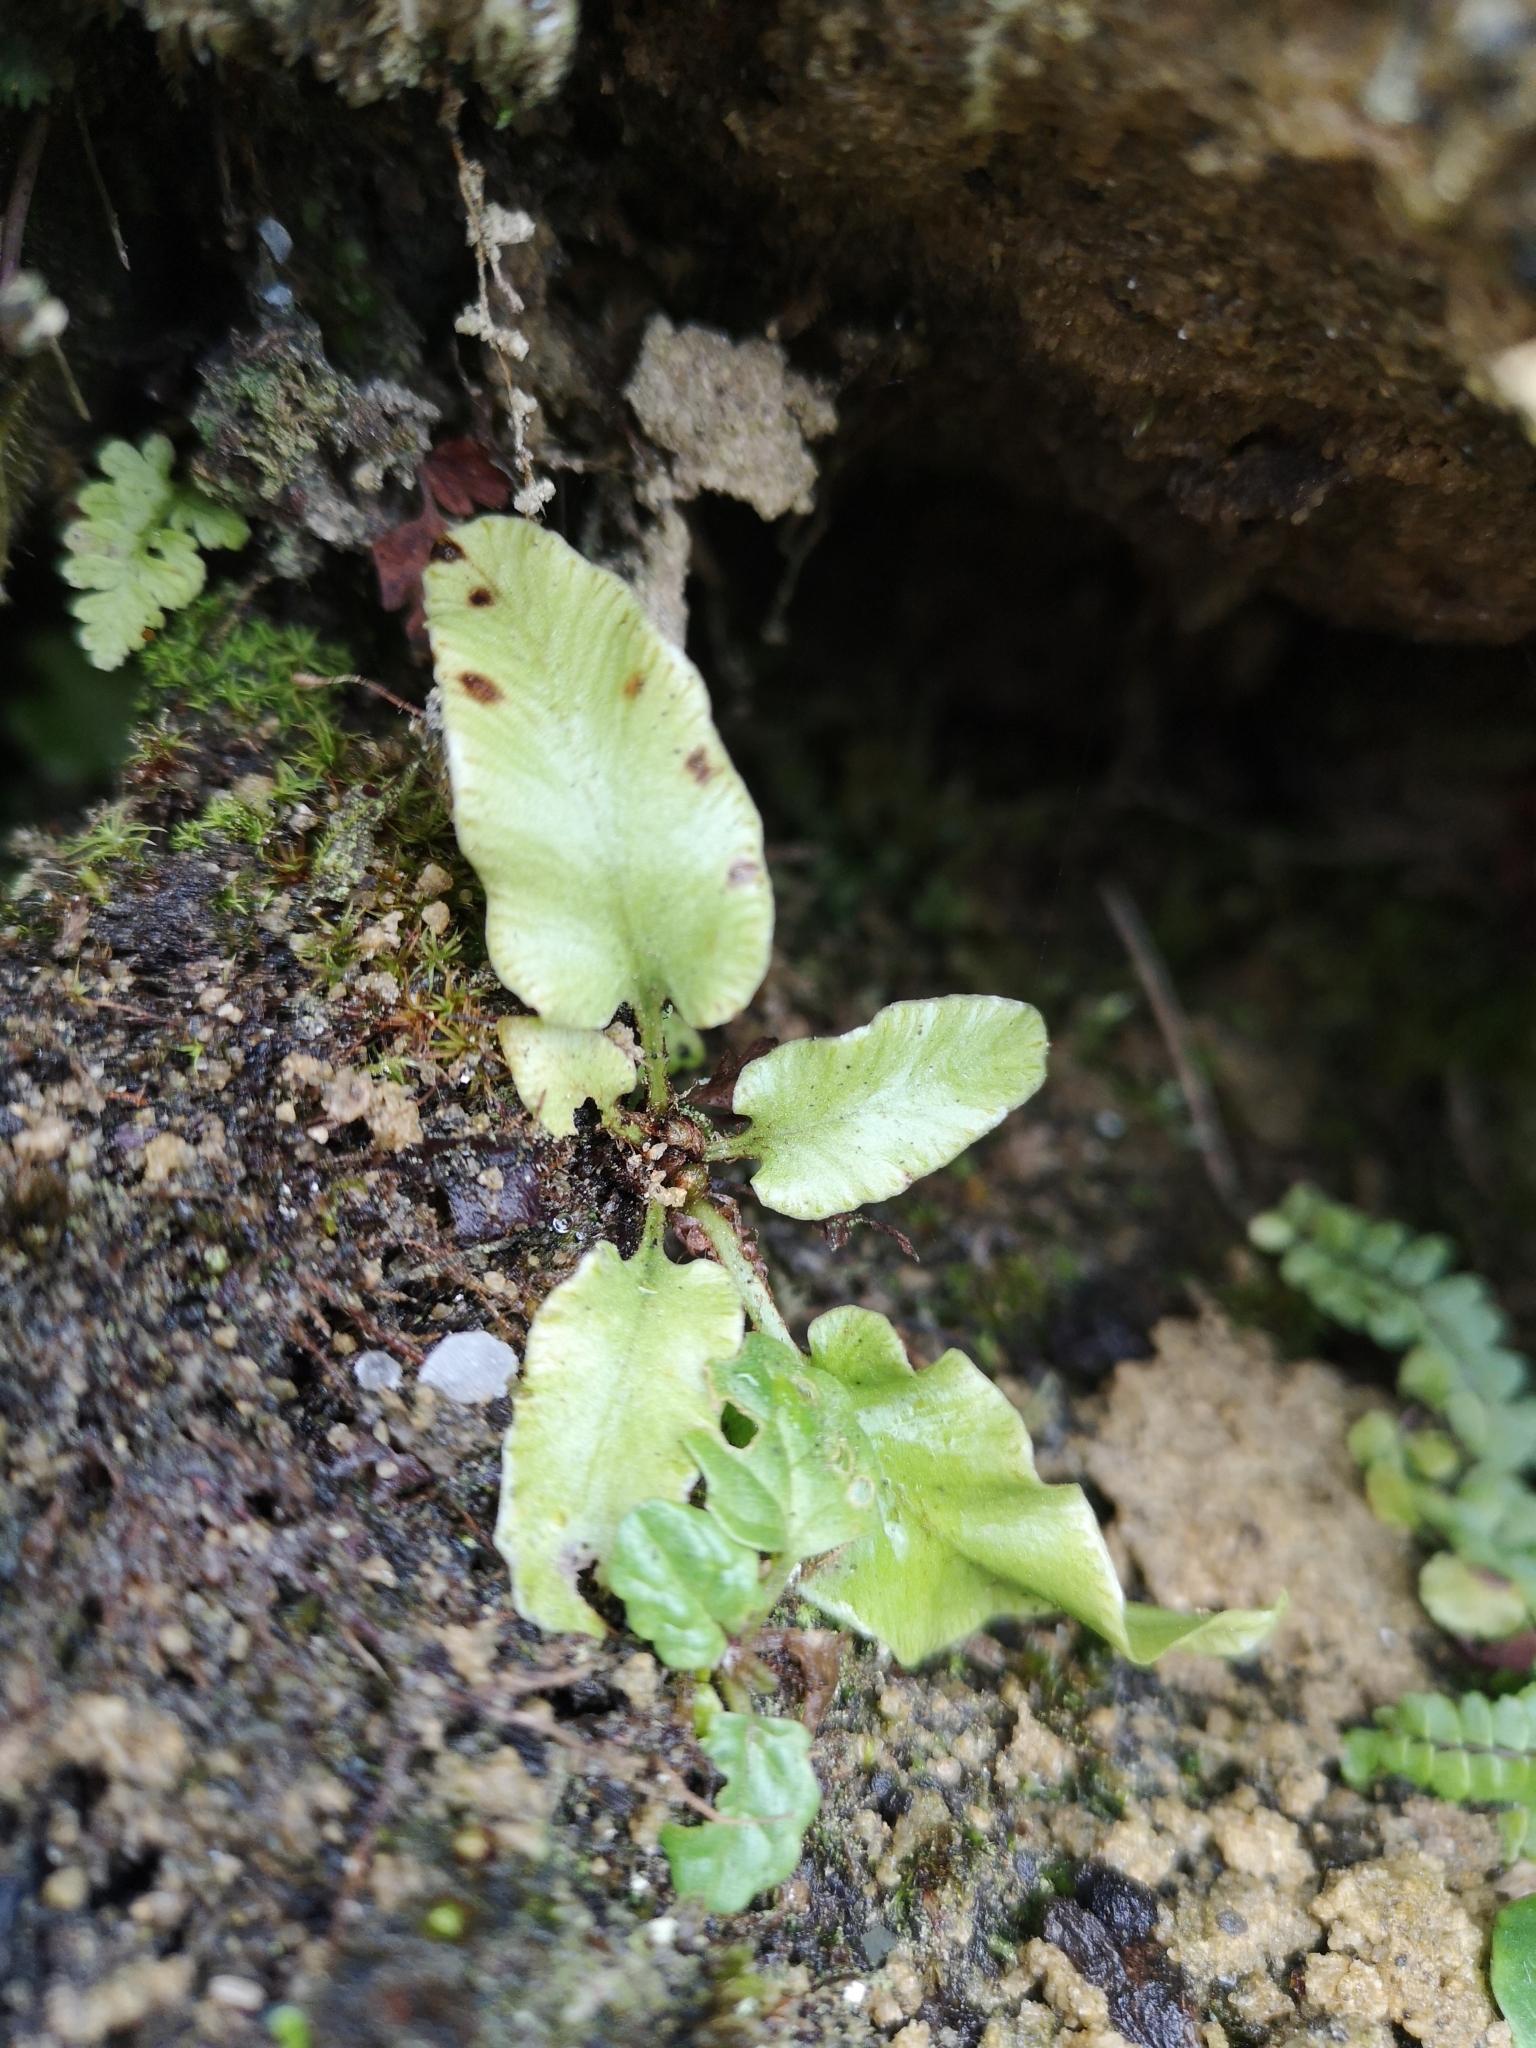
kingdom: Plantae
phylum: Tracheophyta
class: Polypodiopsida
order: Polypodiales
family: Aspleniaceae
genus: Asplenium
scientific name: Asplenium scolopendrium
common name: Hart's-tongue fern
